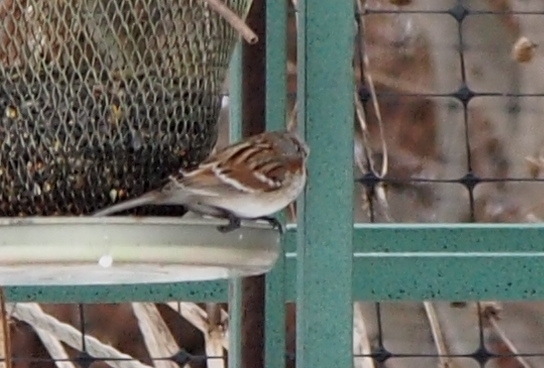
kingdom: Animalia
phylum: Chordata
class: Aves
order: Passeriformes
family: Passerellidae
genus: Spizelloides
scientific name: Spizelloides arborea
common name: American tree sparrow
